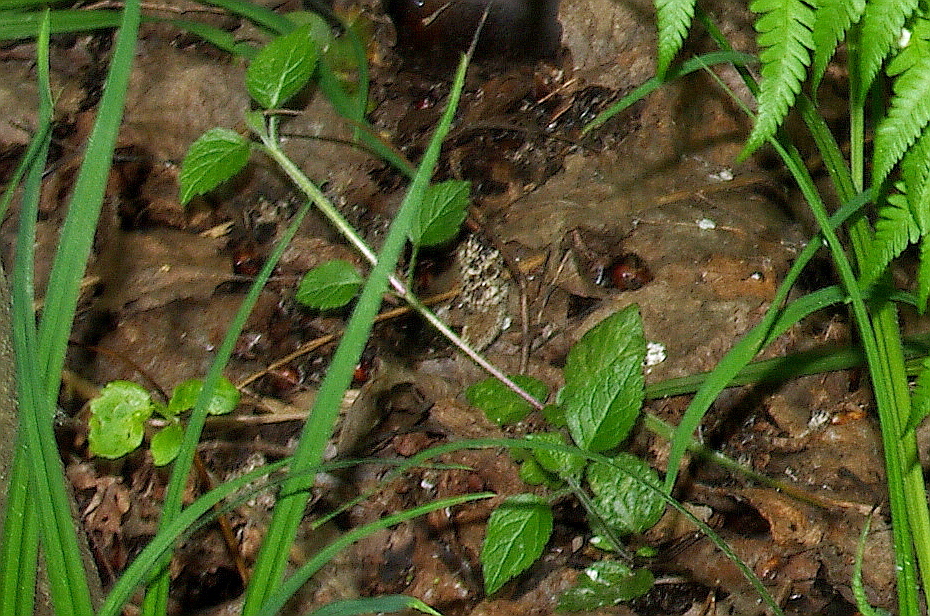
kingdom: Plantae
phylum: Tracheophyta
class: Magnoliopsida
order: Lamiales
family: Lamiaceae
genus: Lamium
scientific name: Lamium galeobdolon
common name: Yellow archangel
